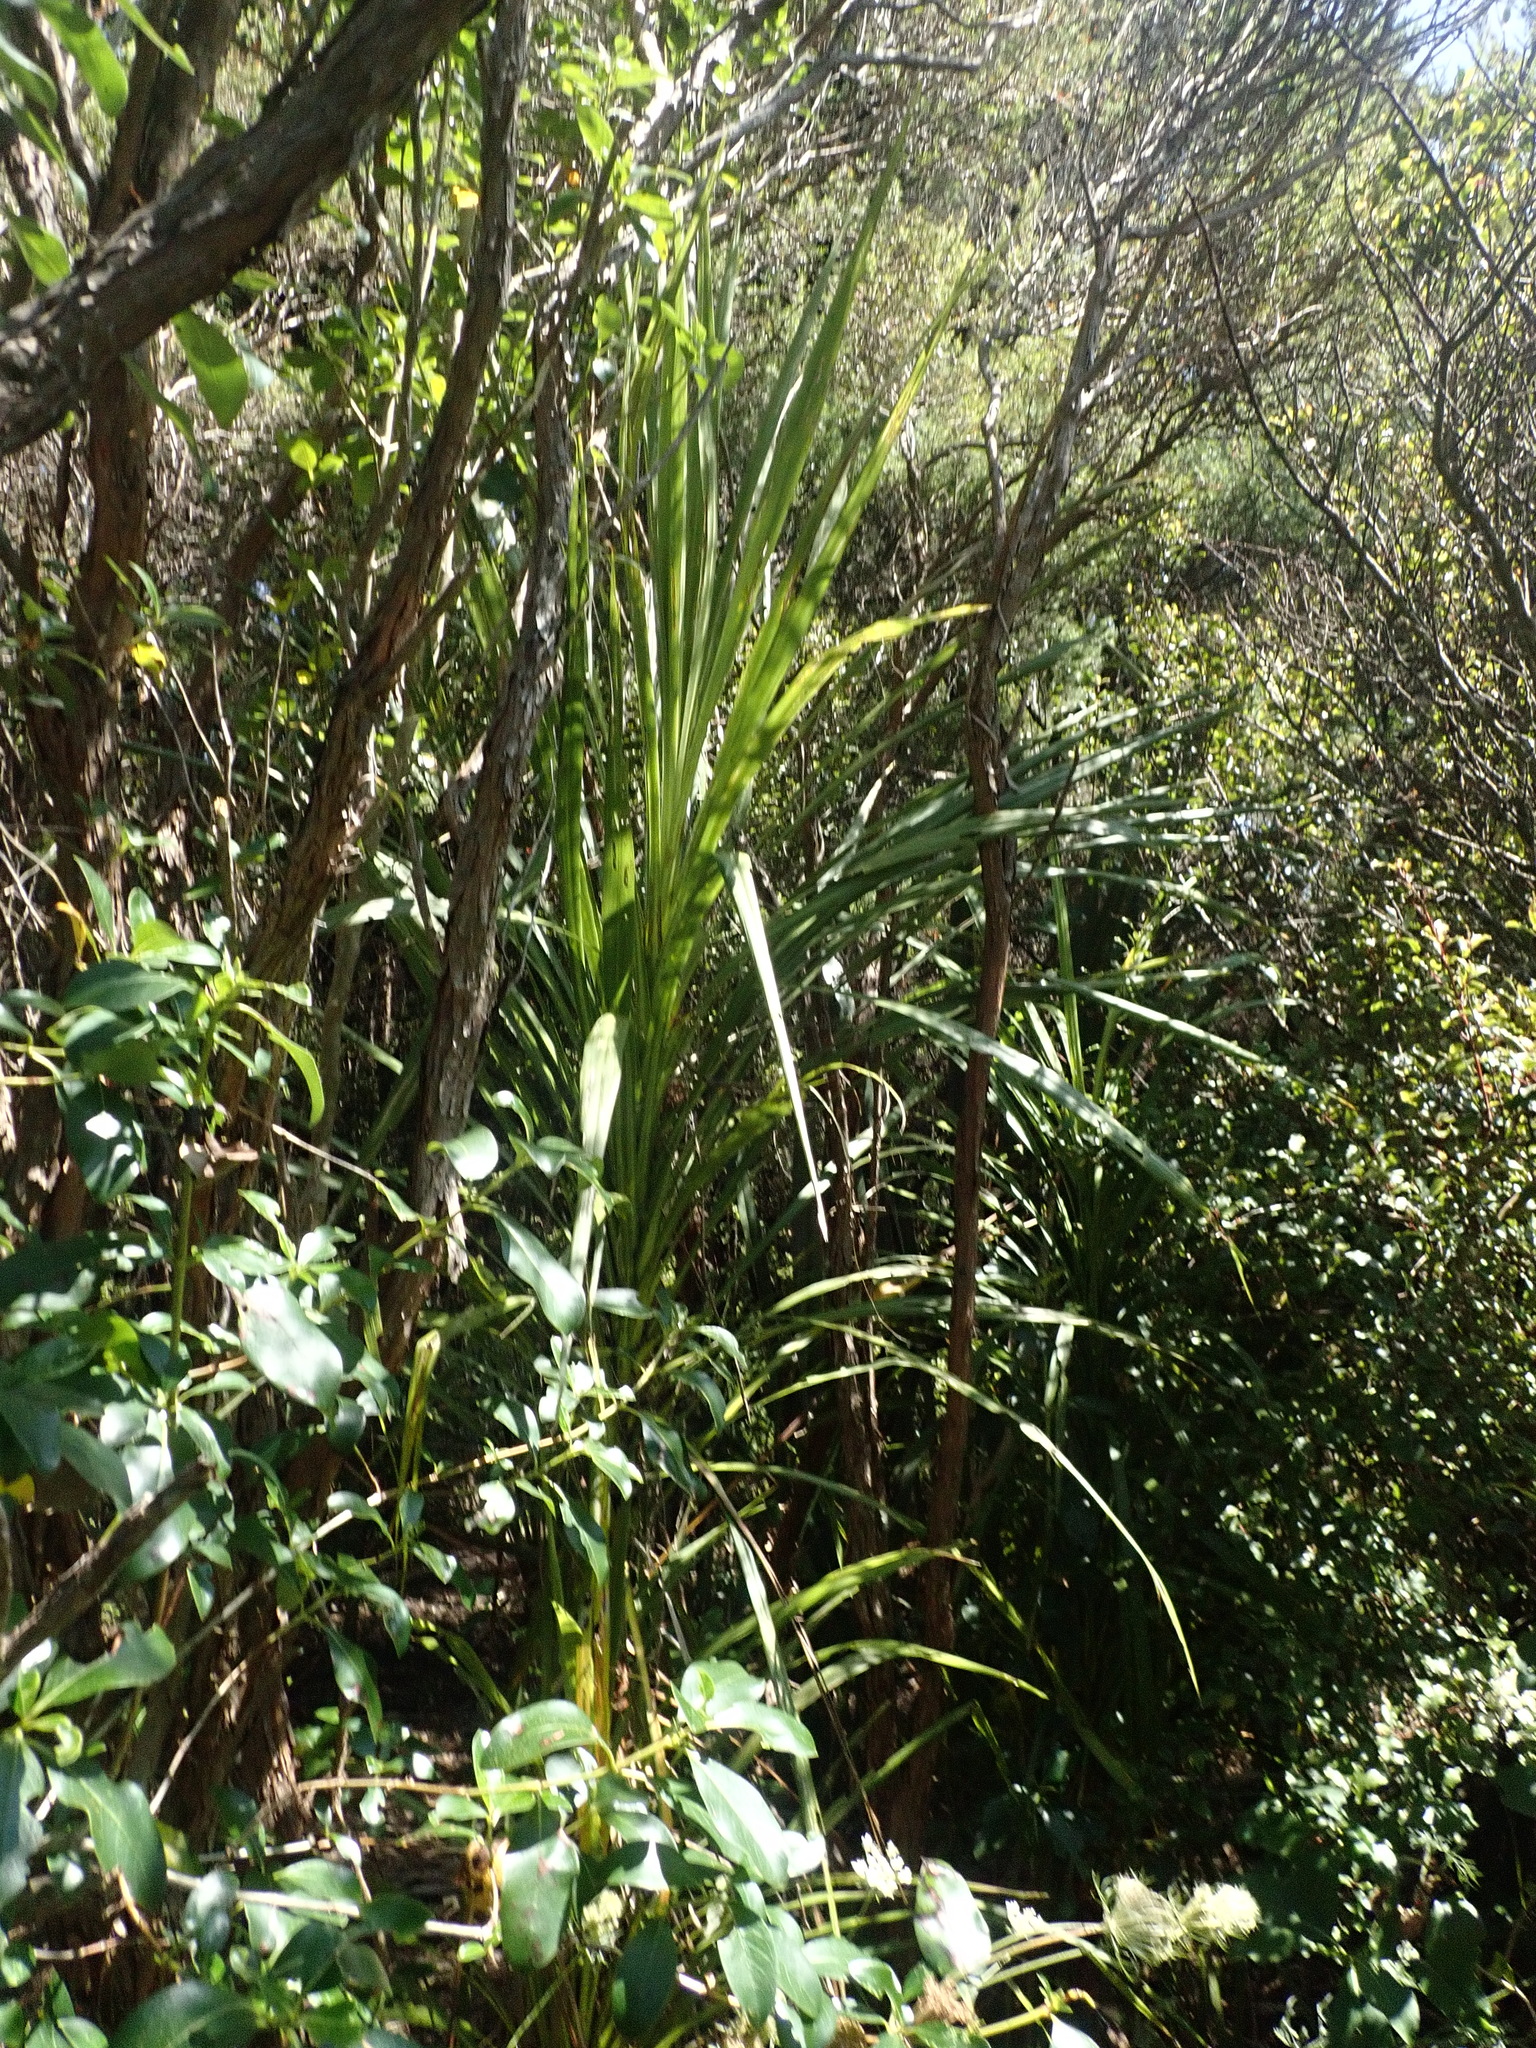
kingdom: Plantae
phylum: Tracheophyta
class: Liliopsida
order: Asparagales
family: Asparagaceae
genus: Cordyline
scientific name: Cordyline australis
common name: Cabbage-palm
